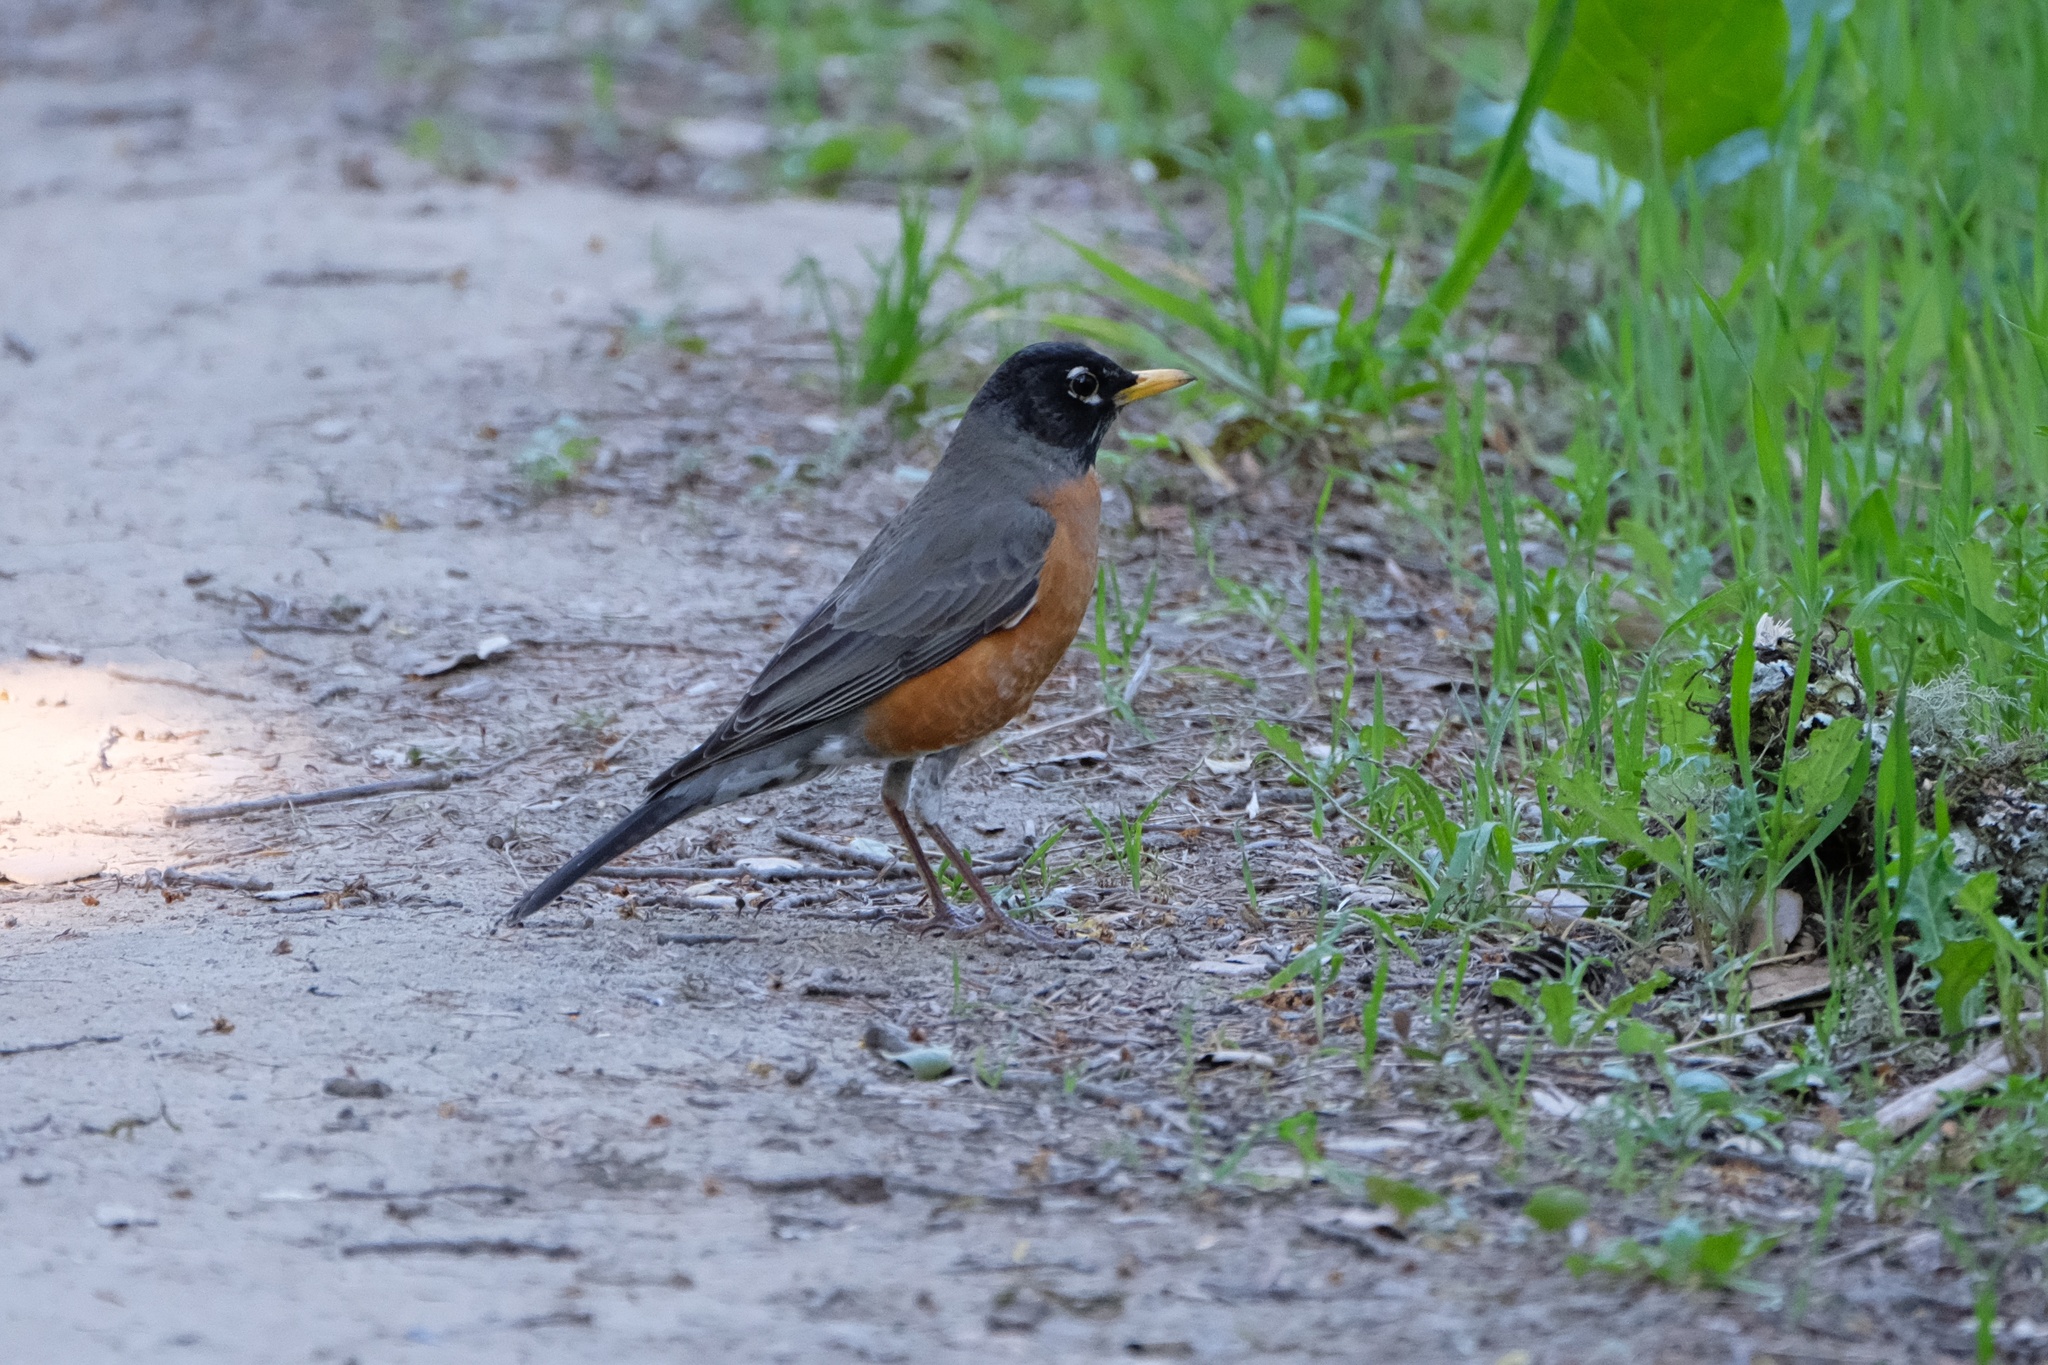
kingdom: Animalia
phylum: Chordata
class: Aves
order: Passeriformes
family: Turdidae
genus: Turdus
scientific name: Turdus migratorius
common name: American robin
